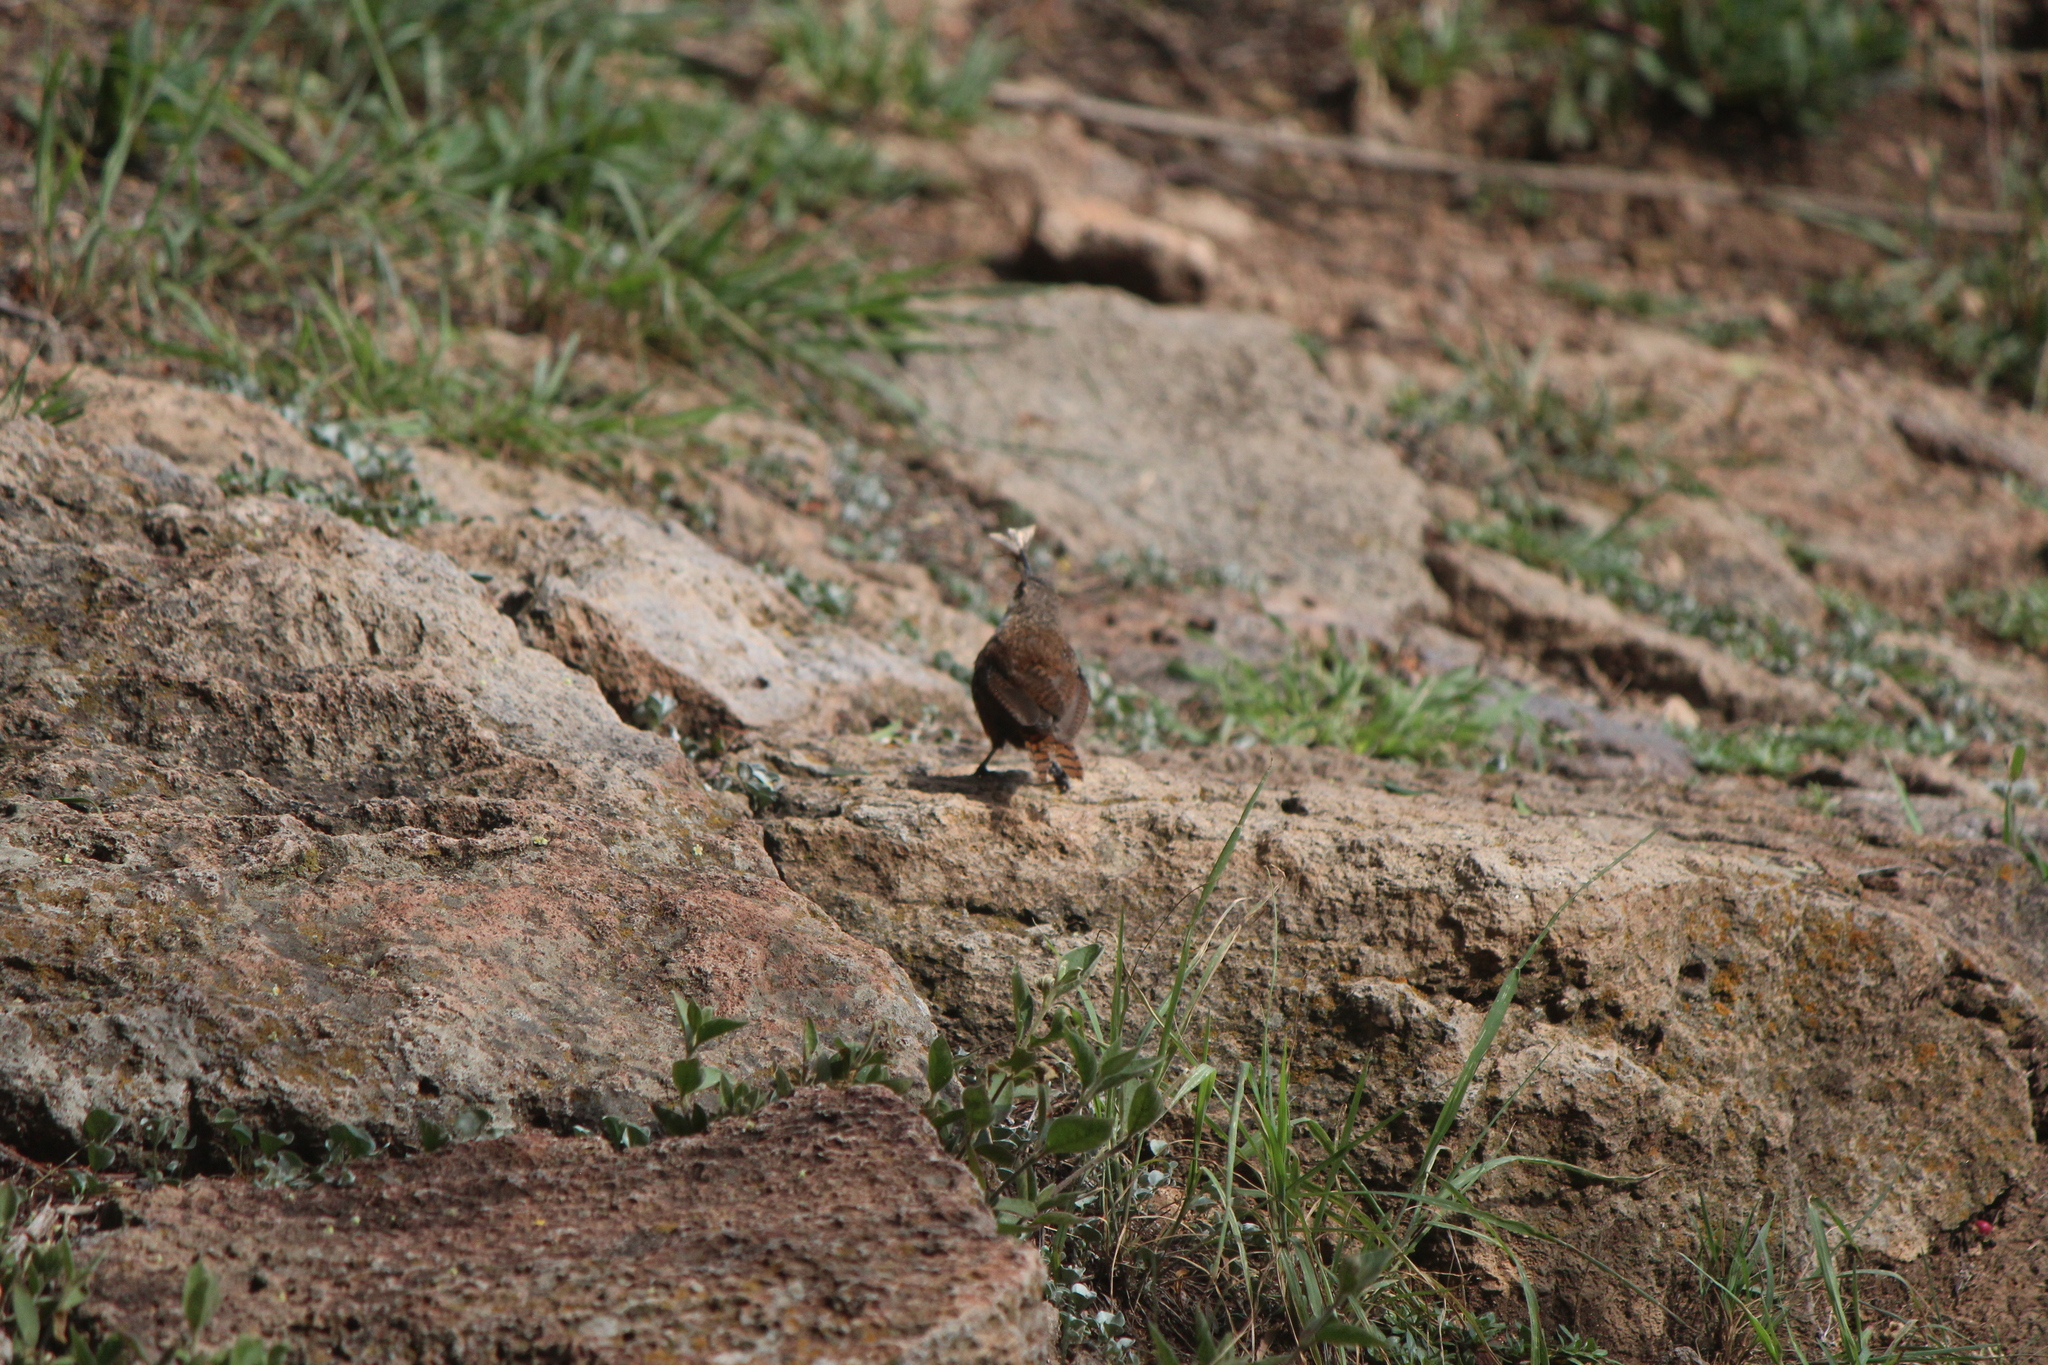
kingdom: Animalia
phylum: Chordata
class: Aves
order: Passeriformes
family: Troglodytidae
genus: Catherpes
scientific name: Catherpes mexicanus
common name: Canyon wren
